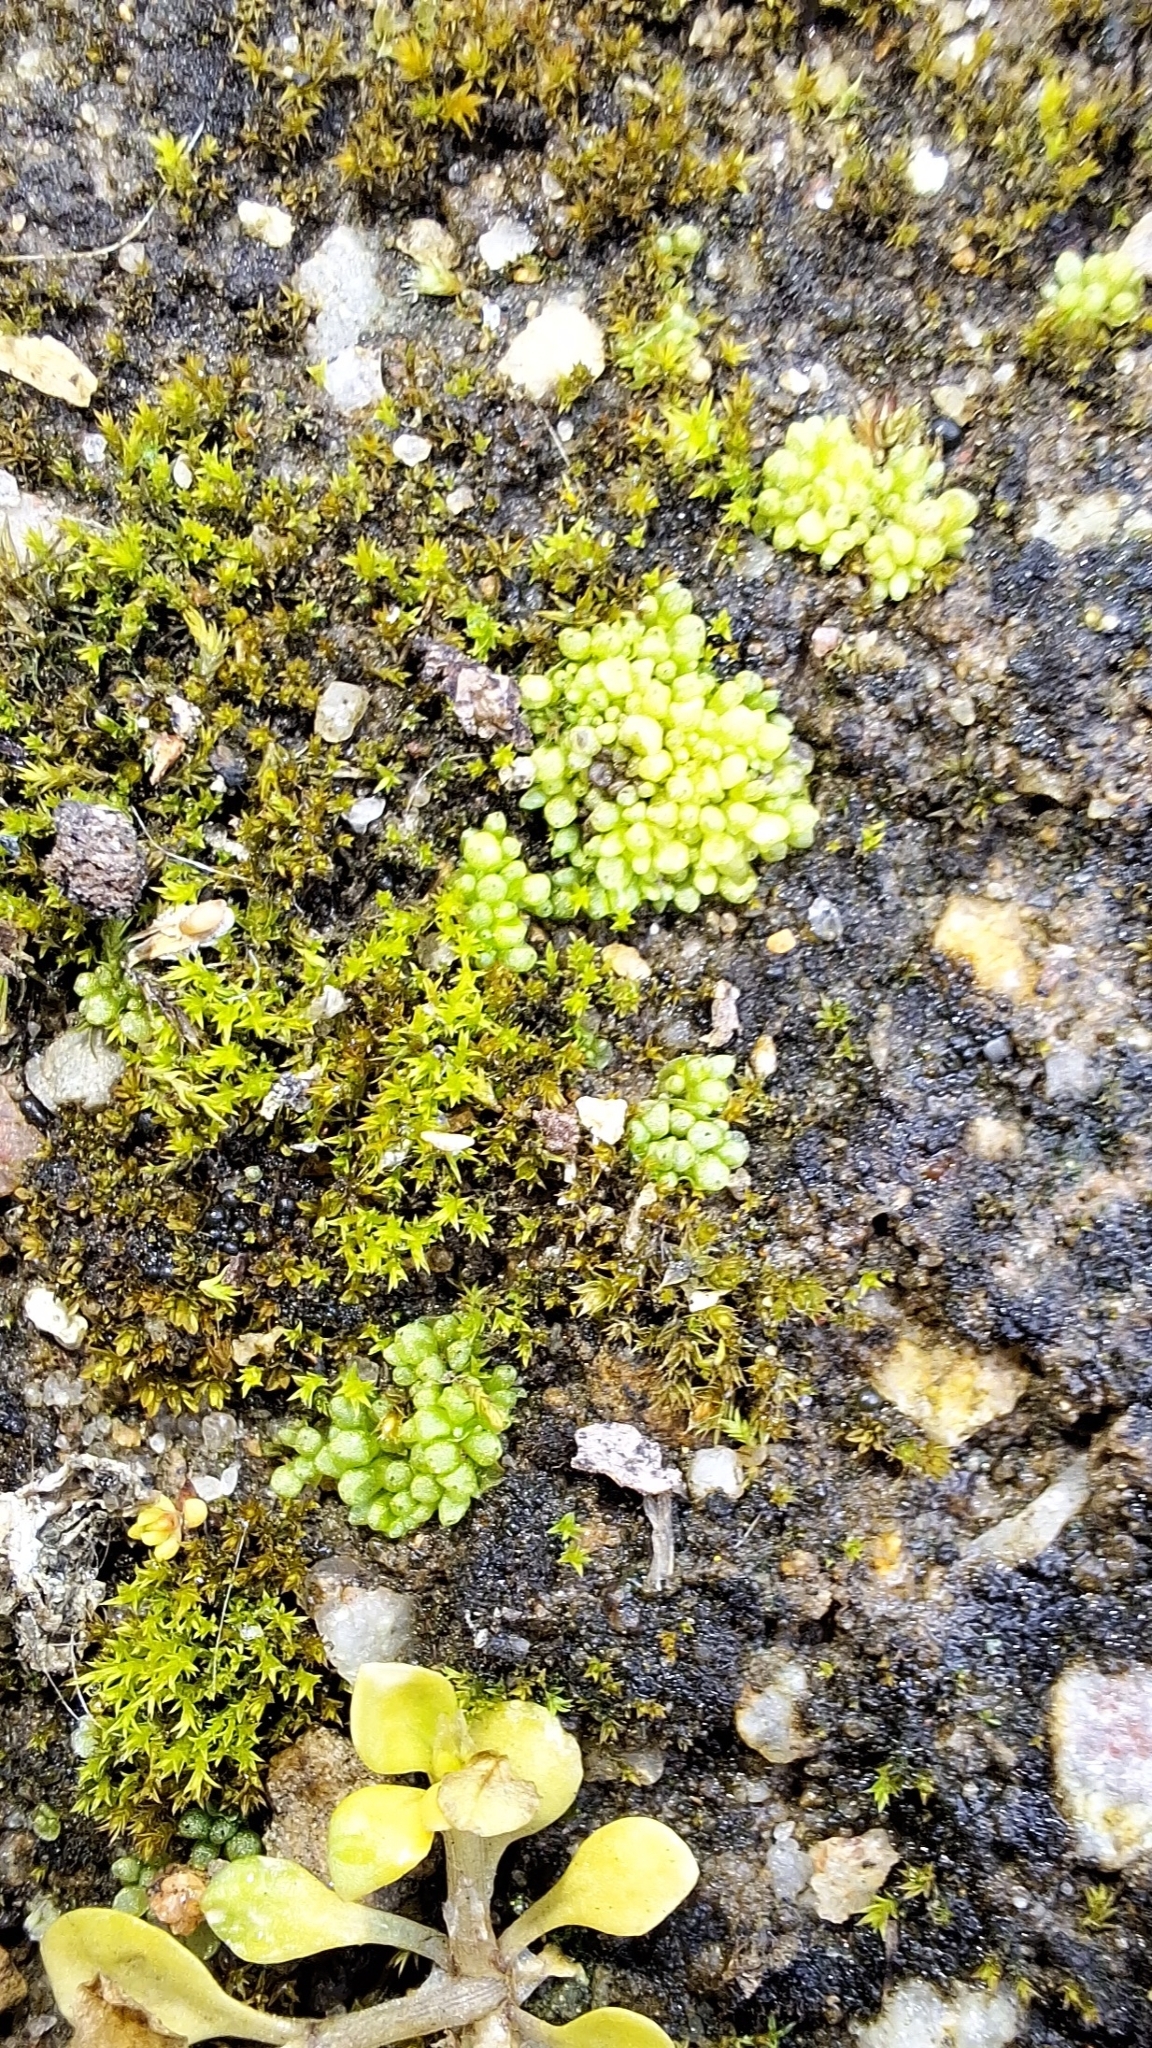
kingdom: Plantae
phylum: Marchantiophyta
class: Marchantiopsida
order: Sphaerocarpales
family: Sphaerocarpaceae
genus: Sphaerocarpos
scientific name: Sphaerocarpos texanus
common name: Texas balloonwort
